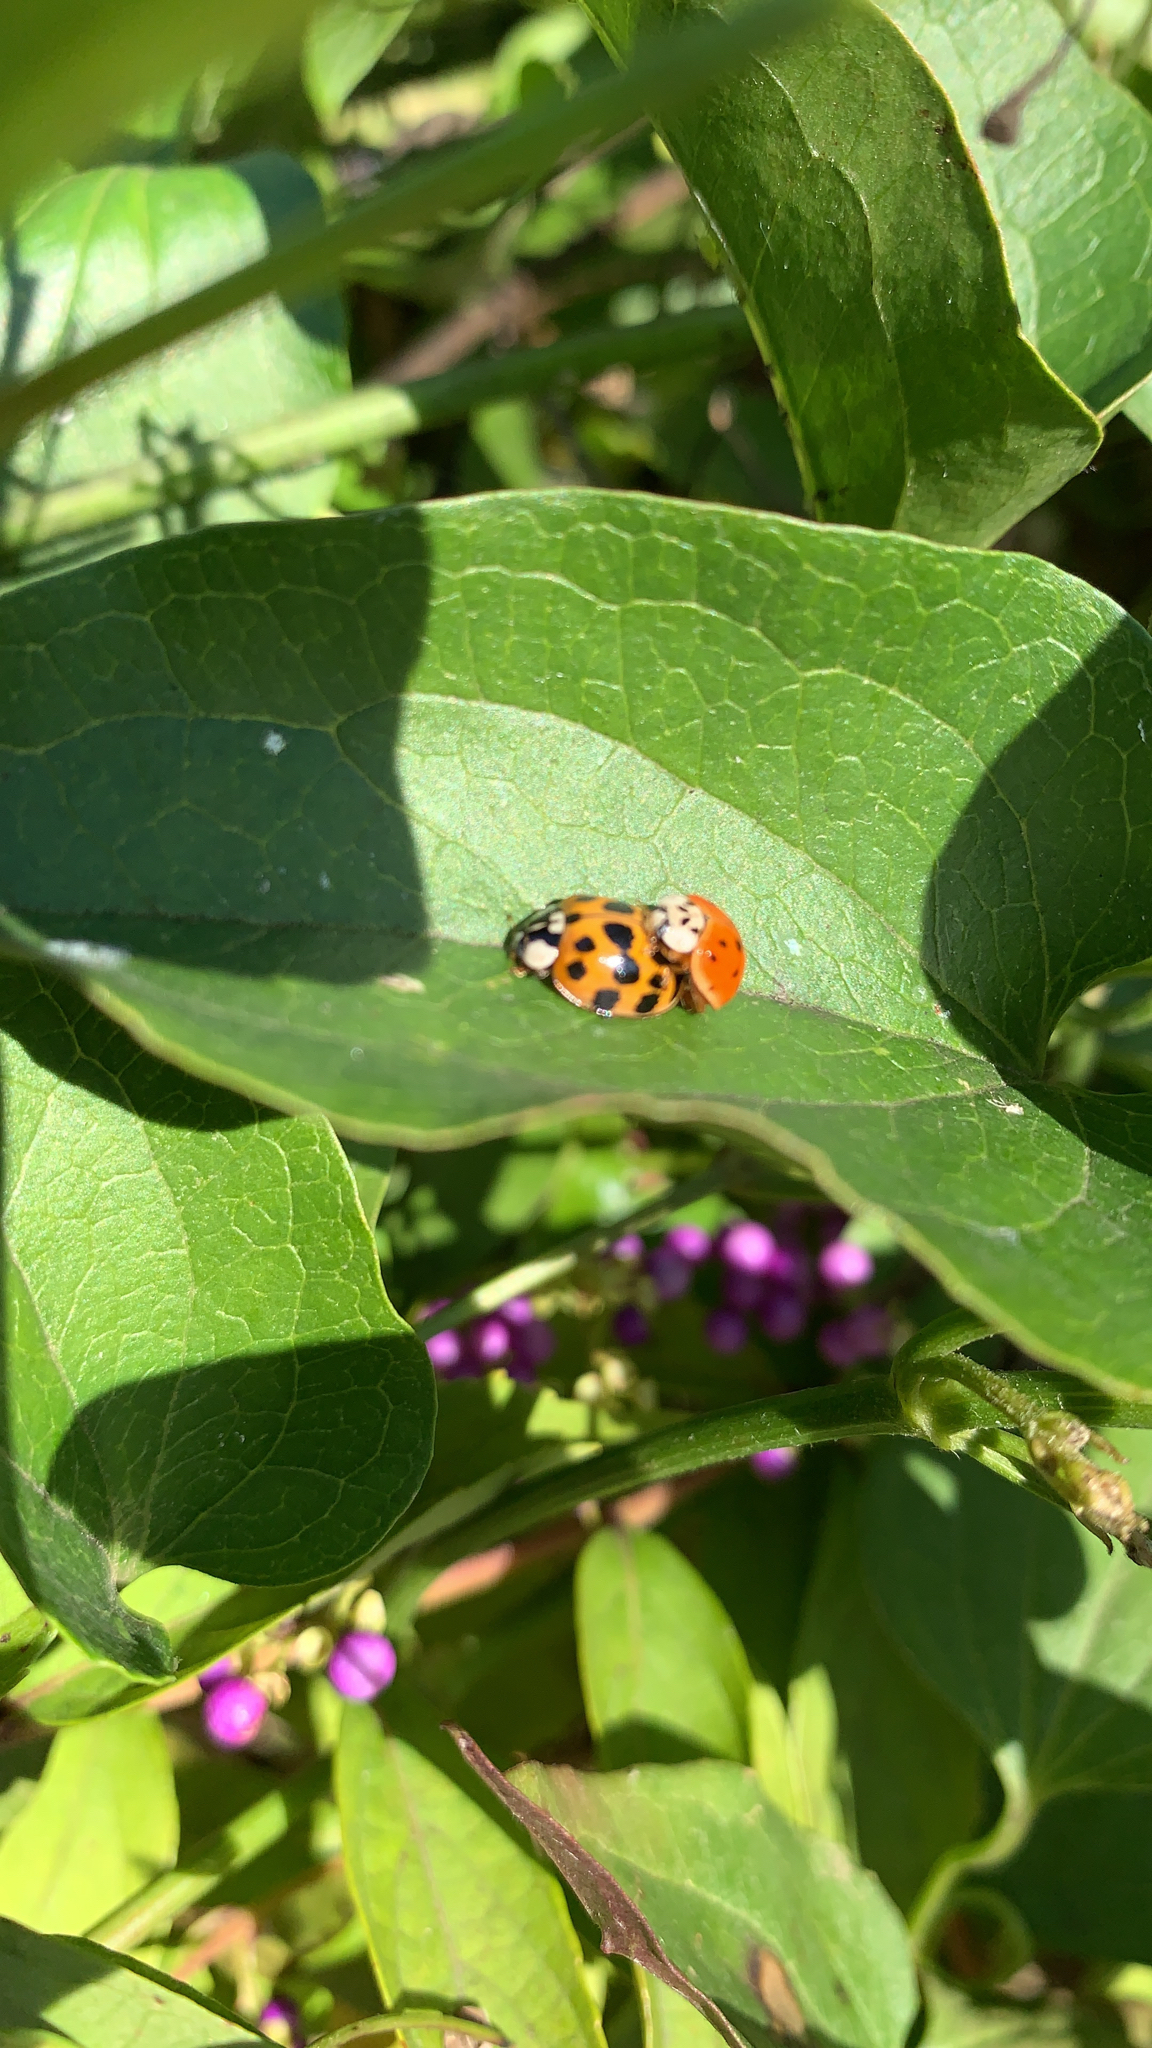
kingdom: Animalia
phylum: Arthropoda
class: Insecta
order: Coleoptera
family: Coccinellidae
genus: Harmonia
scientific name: Harmonia axyridis
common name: Harlequin ladybird
